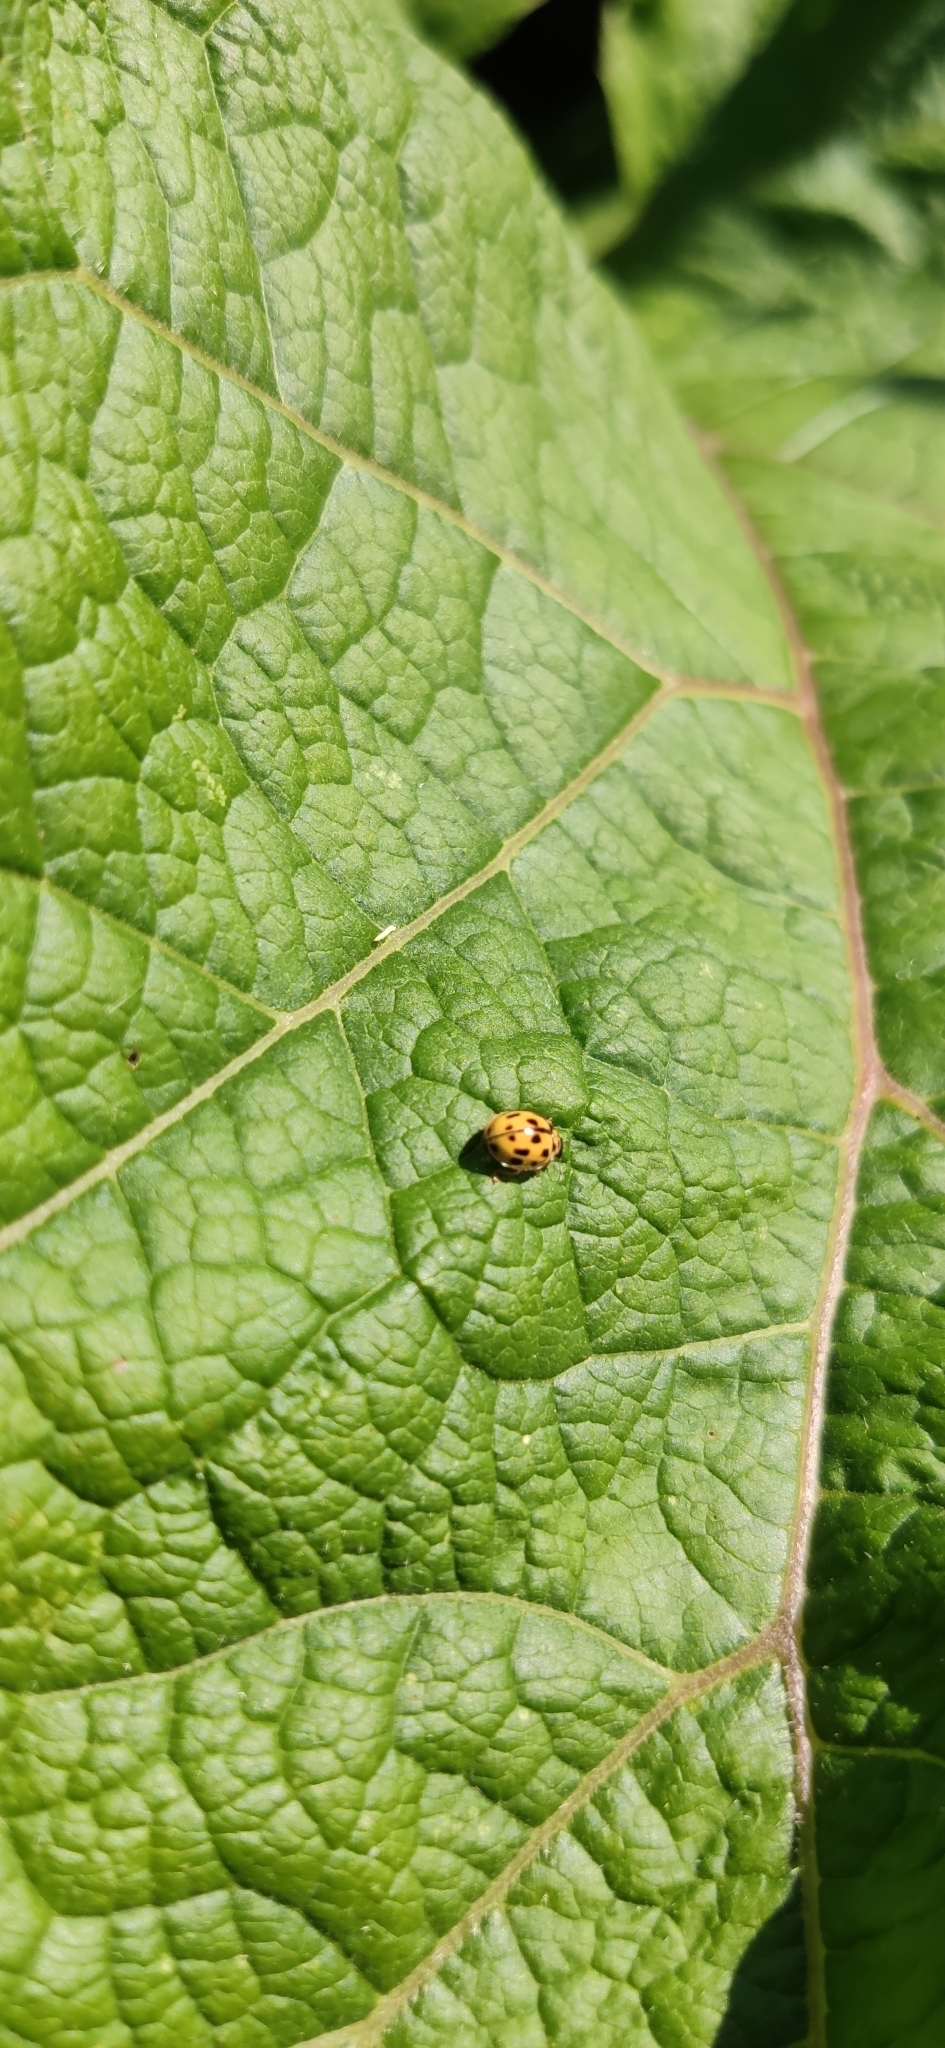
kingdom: Animalia
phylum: Arthropoda
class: Insecta
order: Coleoptera
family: Coccinellidae
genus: Propylaea
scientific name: Propylaea quatuordecimpunctata
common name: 14-spotted ladybird beetle
